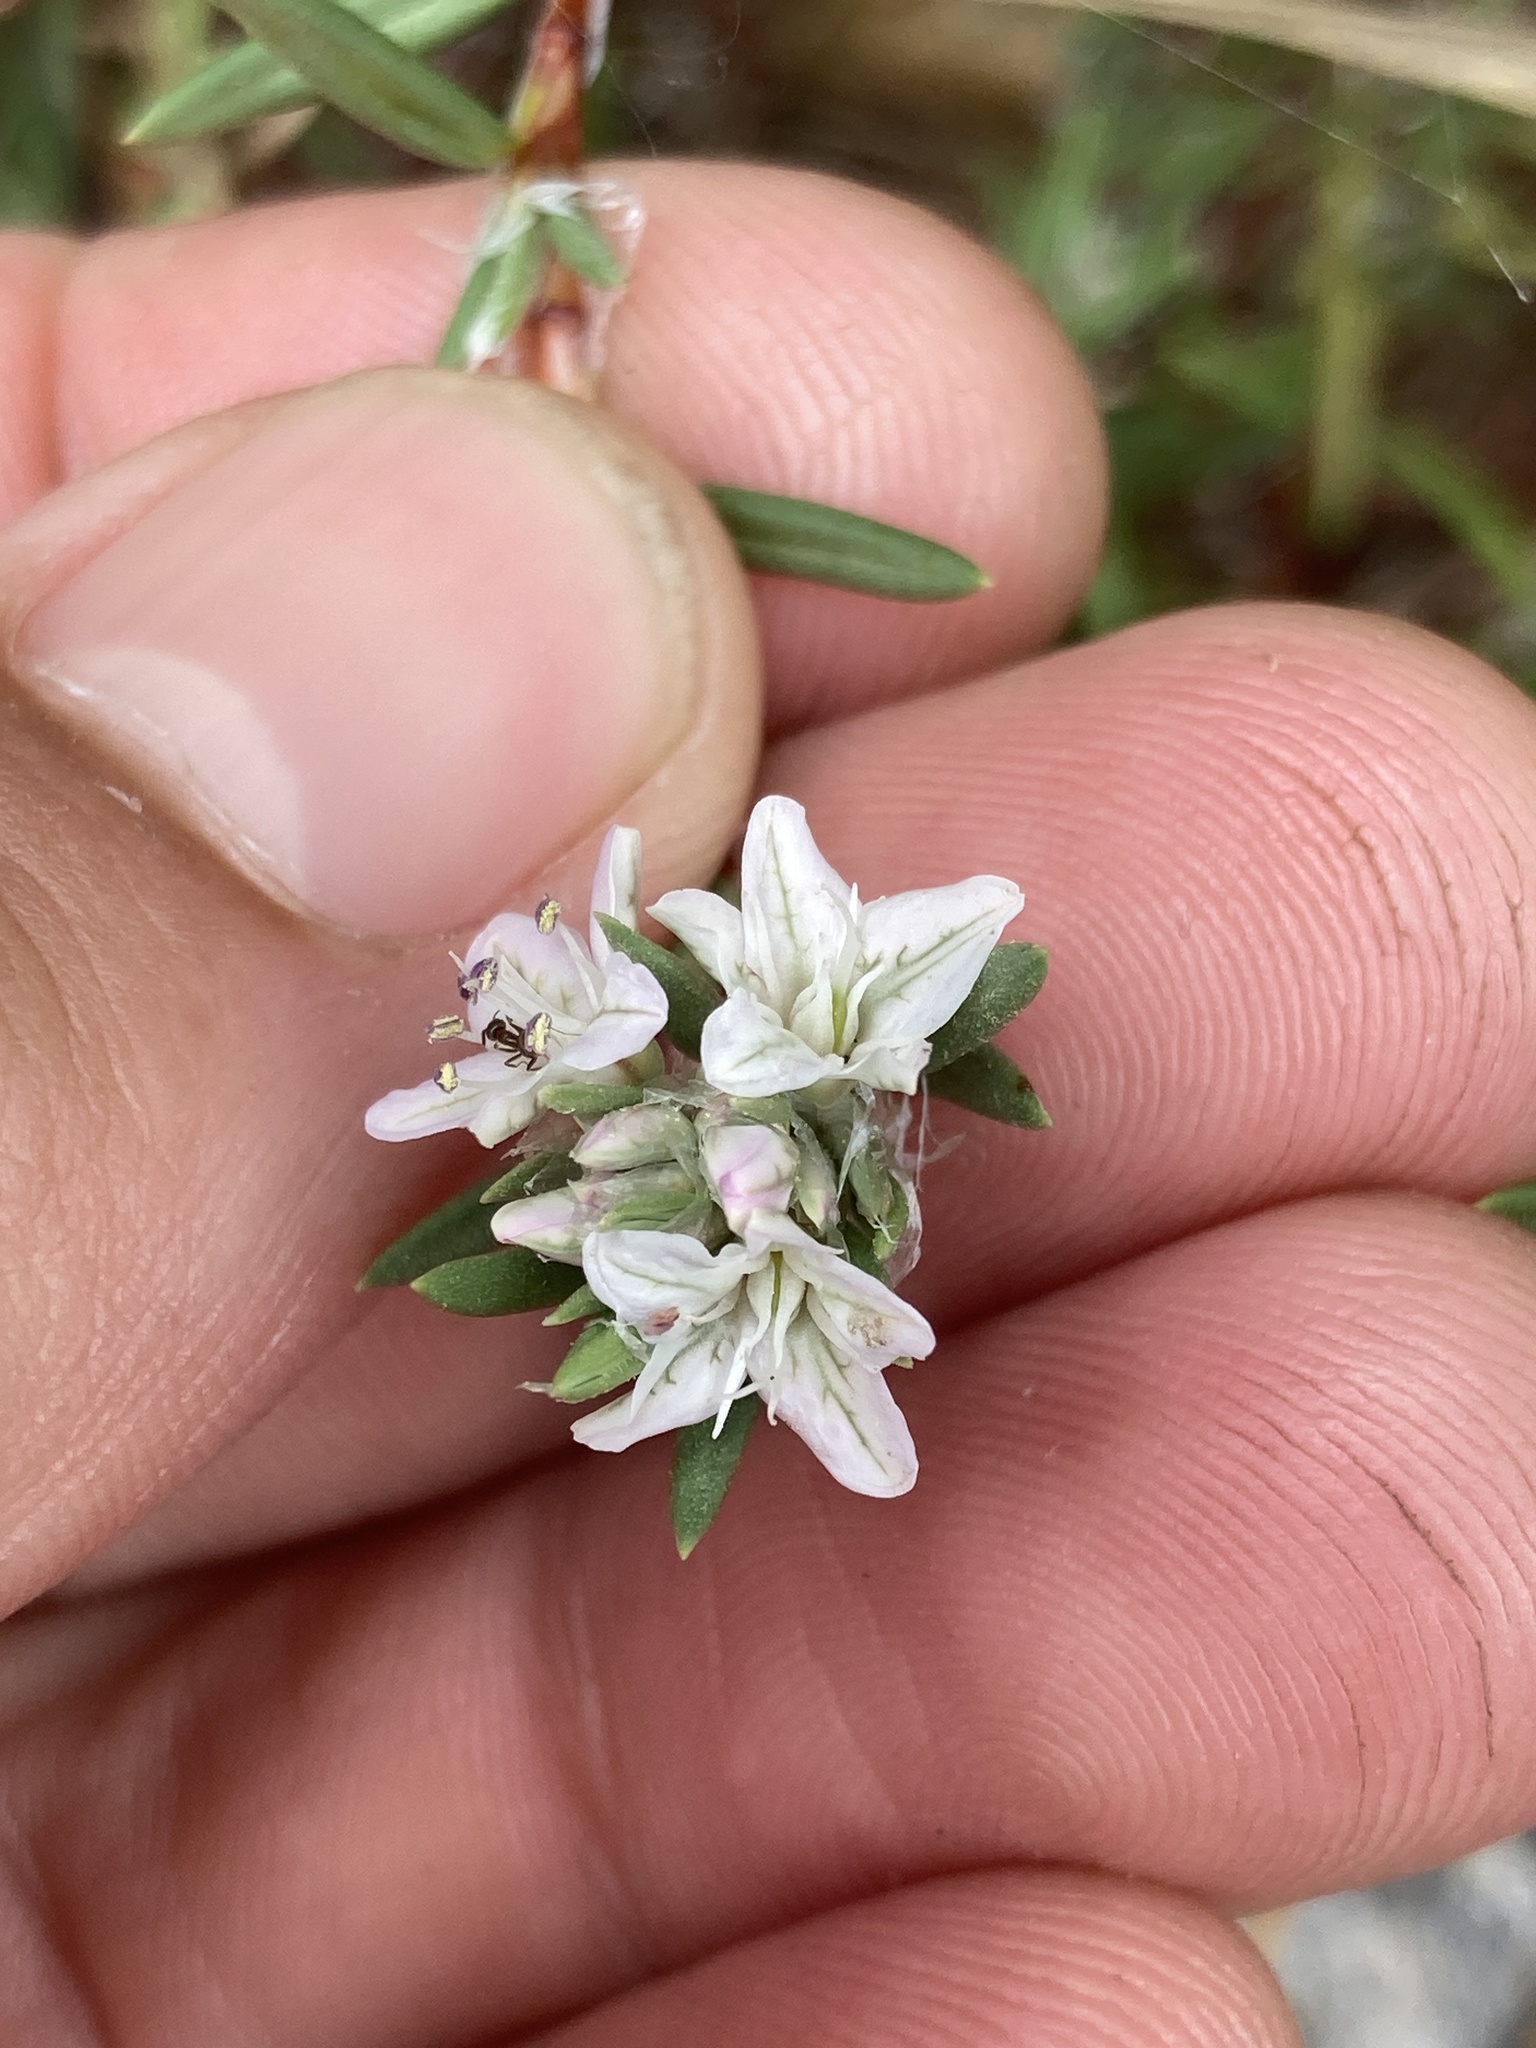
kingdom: Plantae
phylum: Tracheophyta
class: Magnoliopsida
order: Caryophyllales
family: Polygonaceae
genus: Polygonum
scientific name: Polygonum paronychia
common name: Dune knotweed
